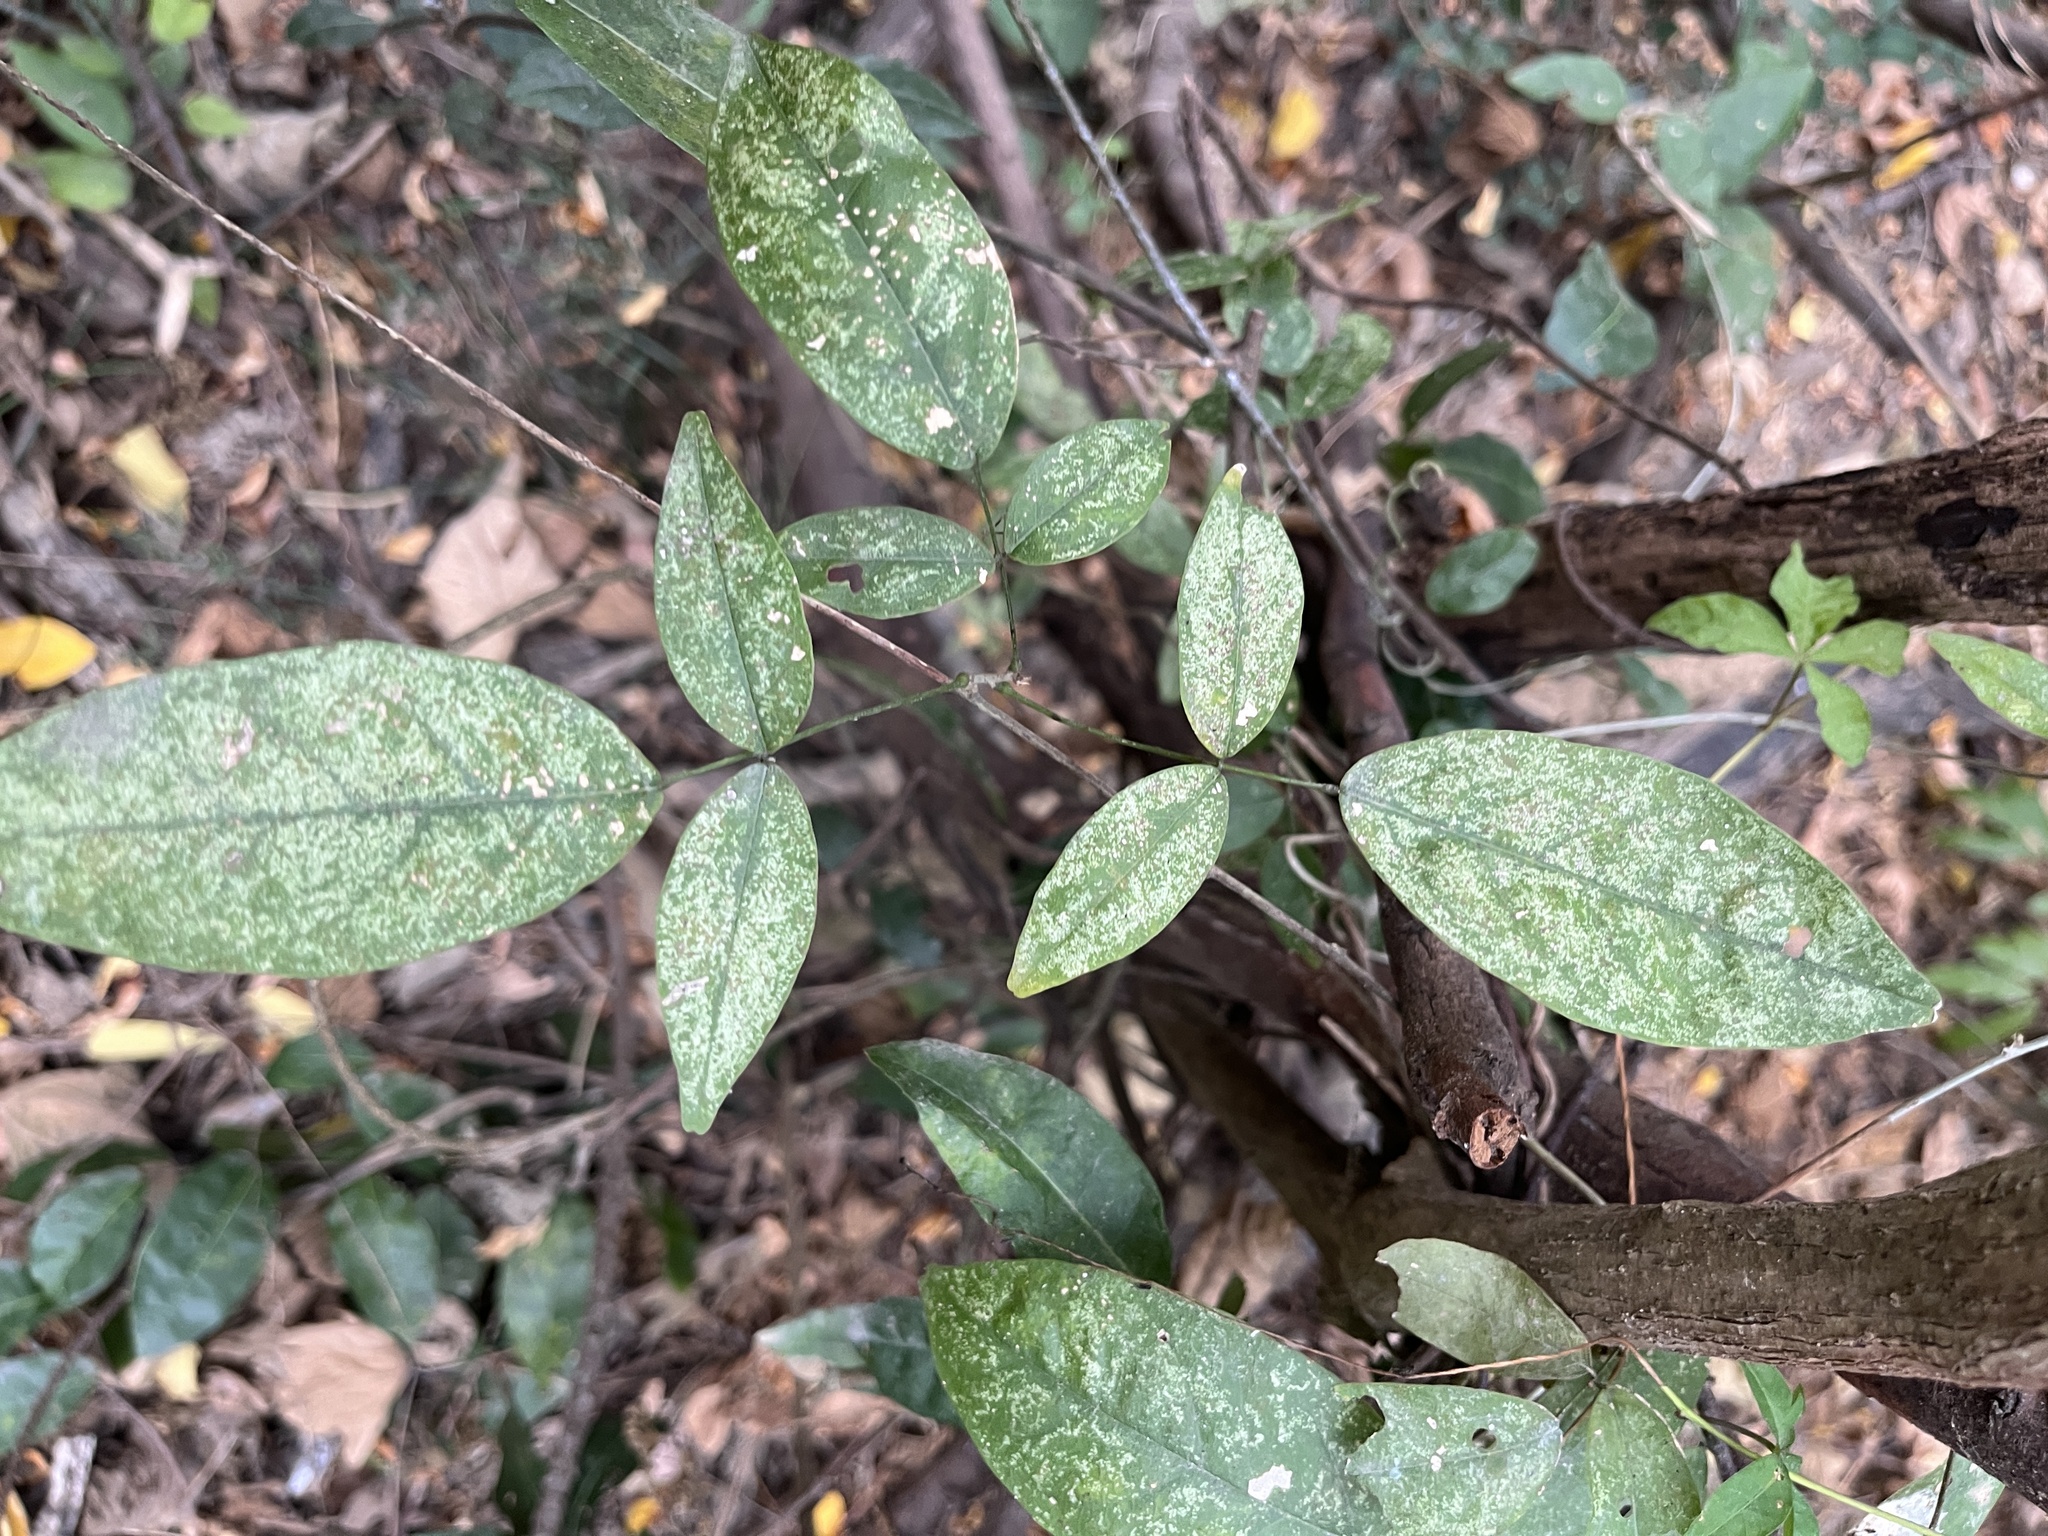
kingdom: Plantae
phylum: Tracheophyta
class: Magnoliopsida
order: Sapindales
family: Rutaceae
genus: Zanthoxylum
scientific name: Zanthoxylum nitidum
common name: Shiny-leaf prickly-ash
